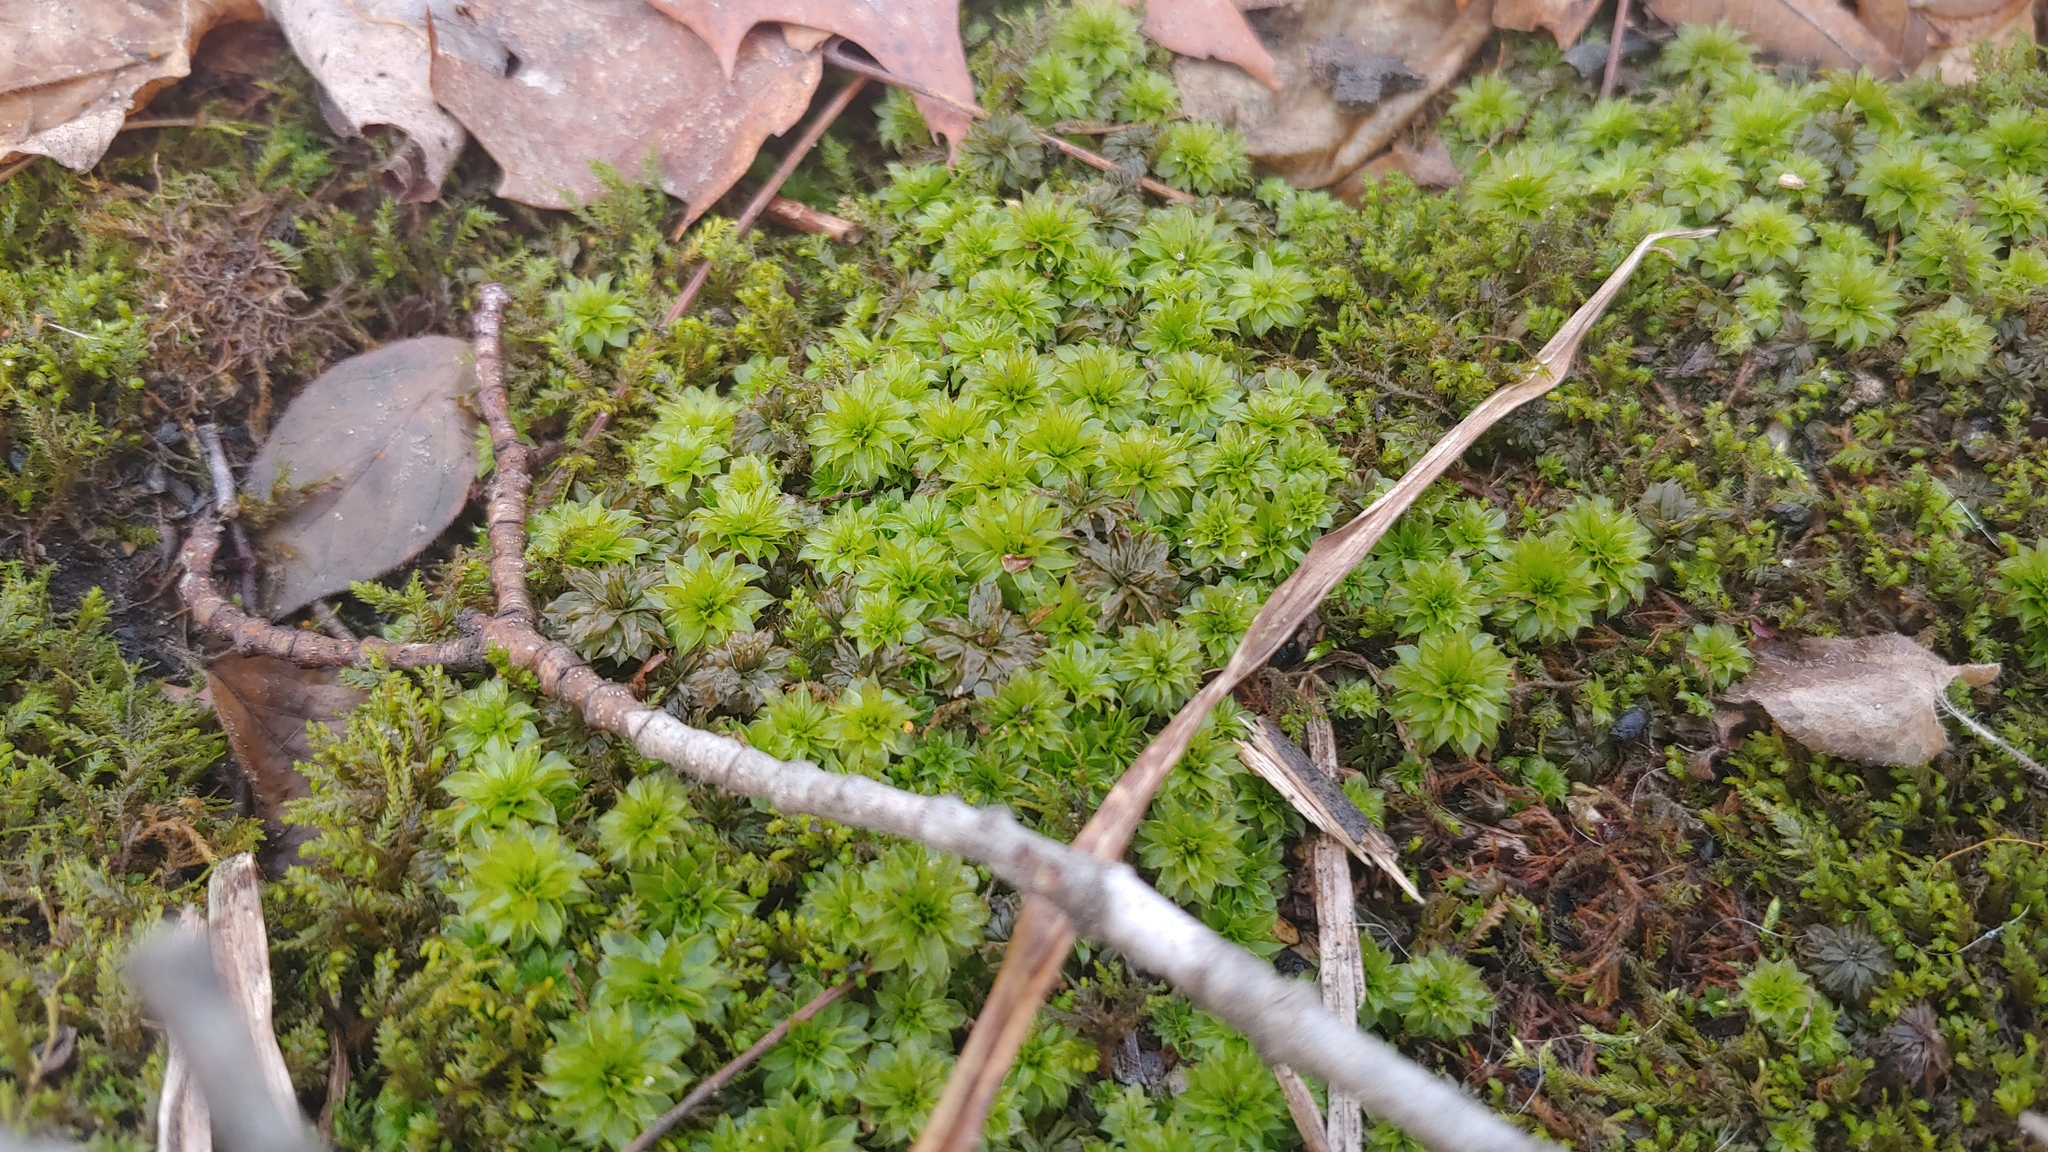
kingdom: Plantae
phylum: Bryophyta
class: Bryopsida
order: Bryales
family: Bryaceae
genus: Rhodobryum
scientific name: Rhodobryum ontariense
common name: Ontario rhodobryum moss
